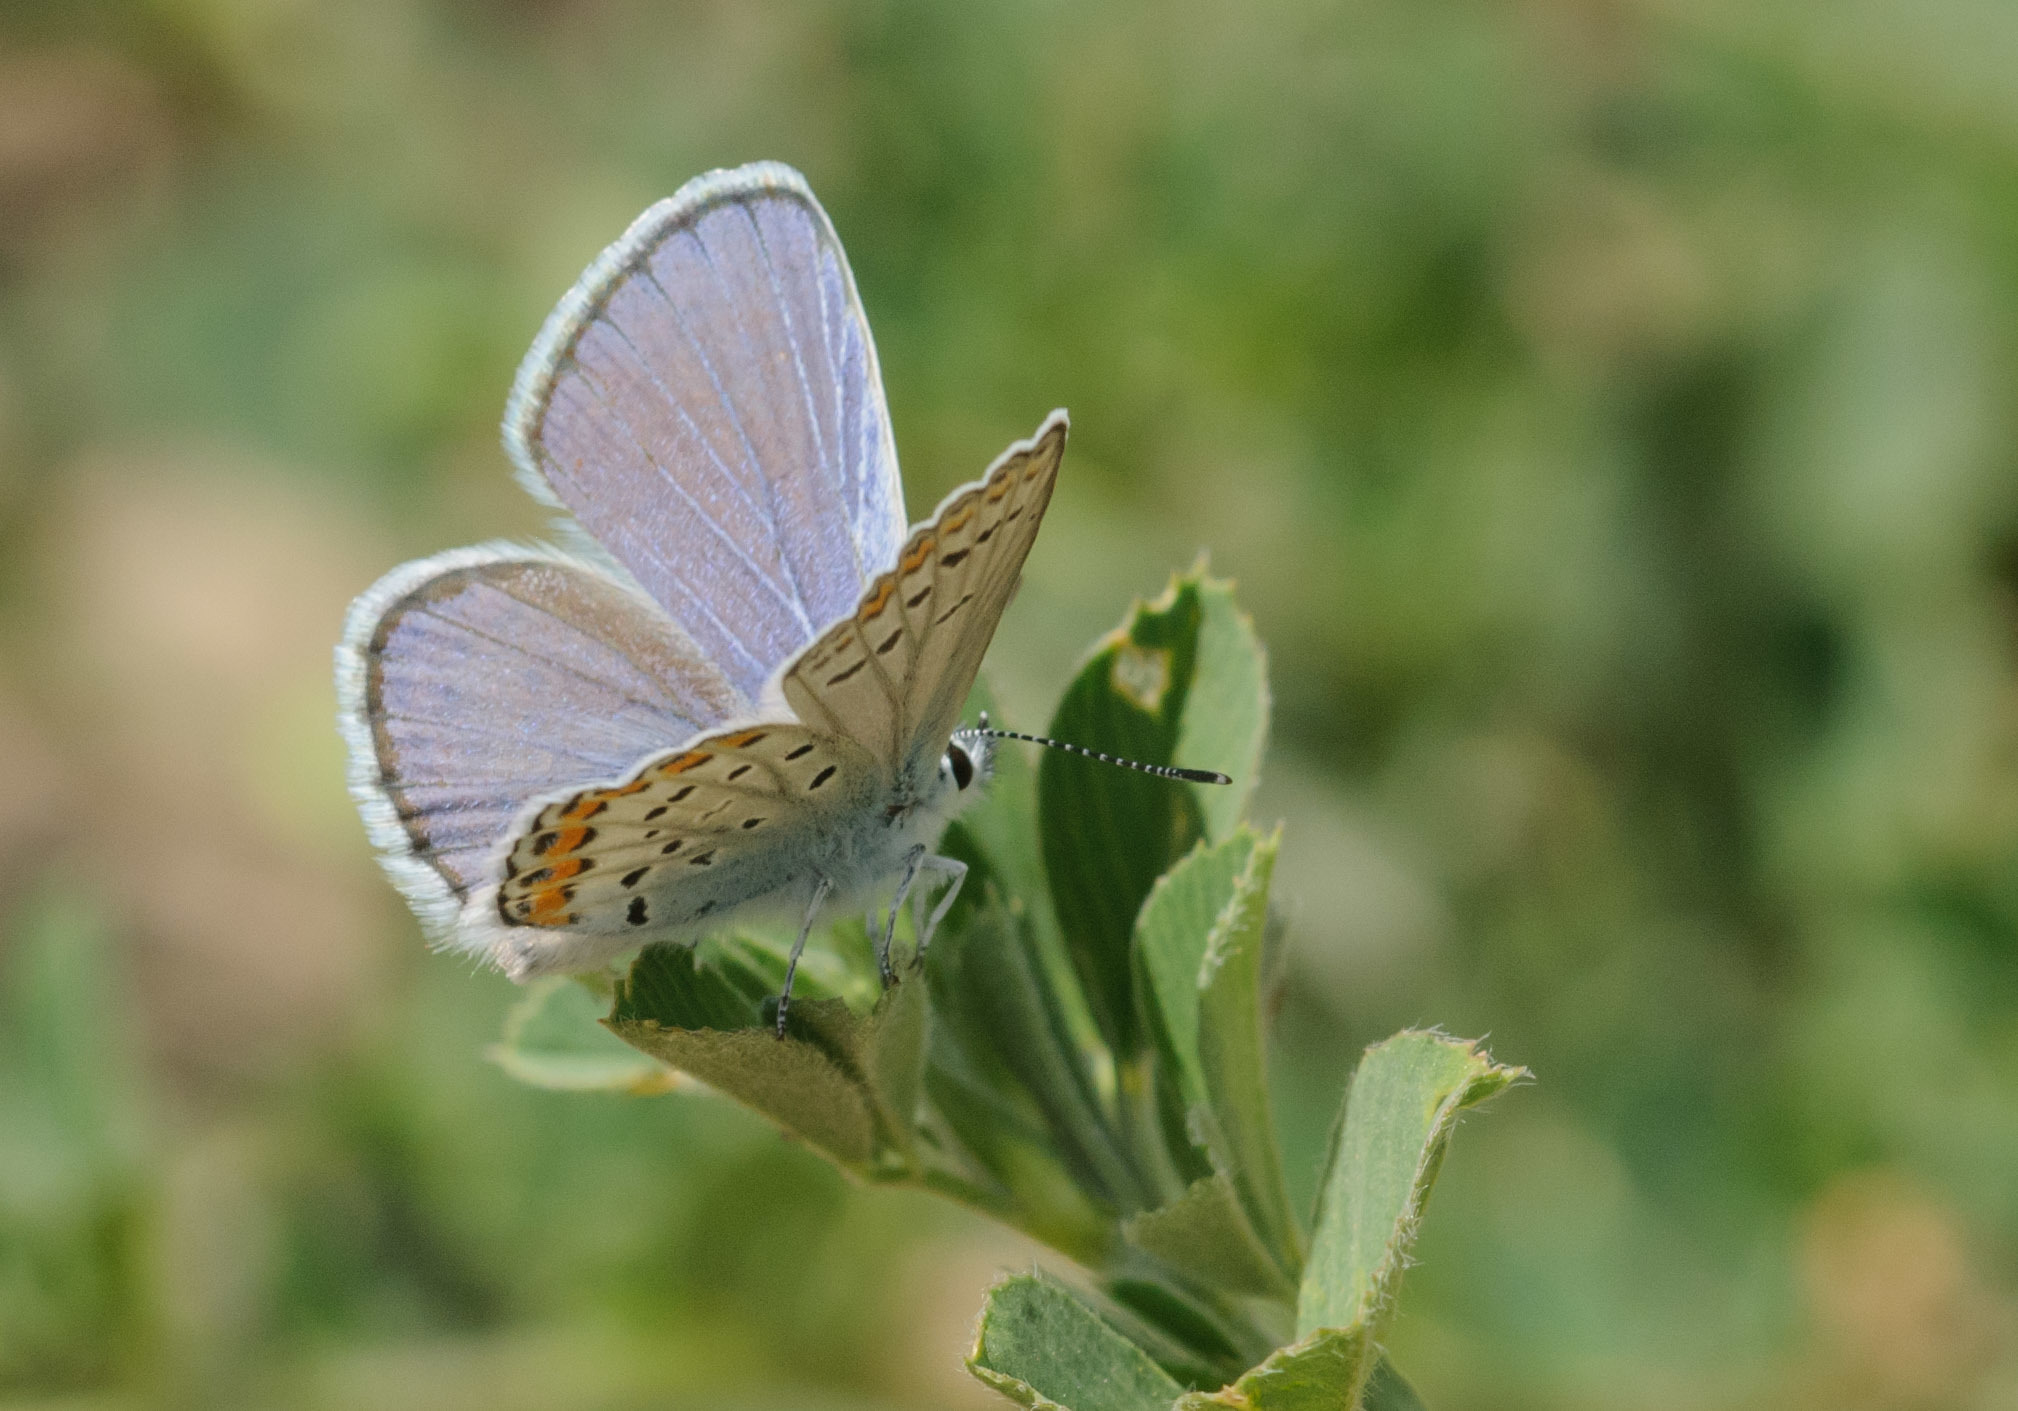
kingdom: Animalia
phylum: Arthropoda
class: Insecta
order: Lepidoptera
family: Lycaenidae
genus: Lycaeides
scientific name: Lycaeides melissa
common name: Melissa blue
